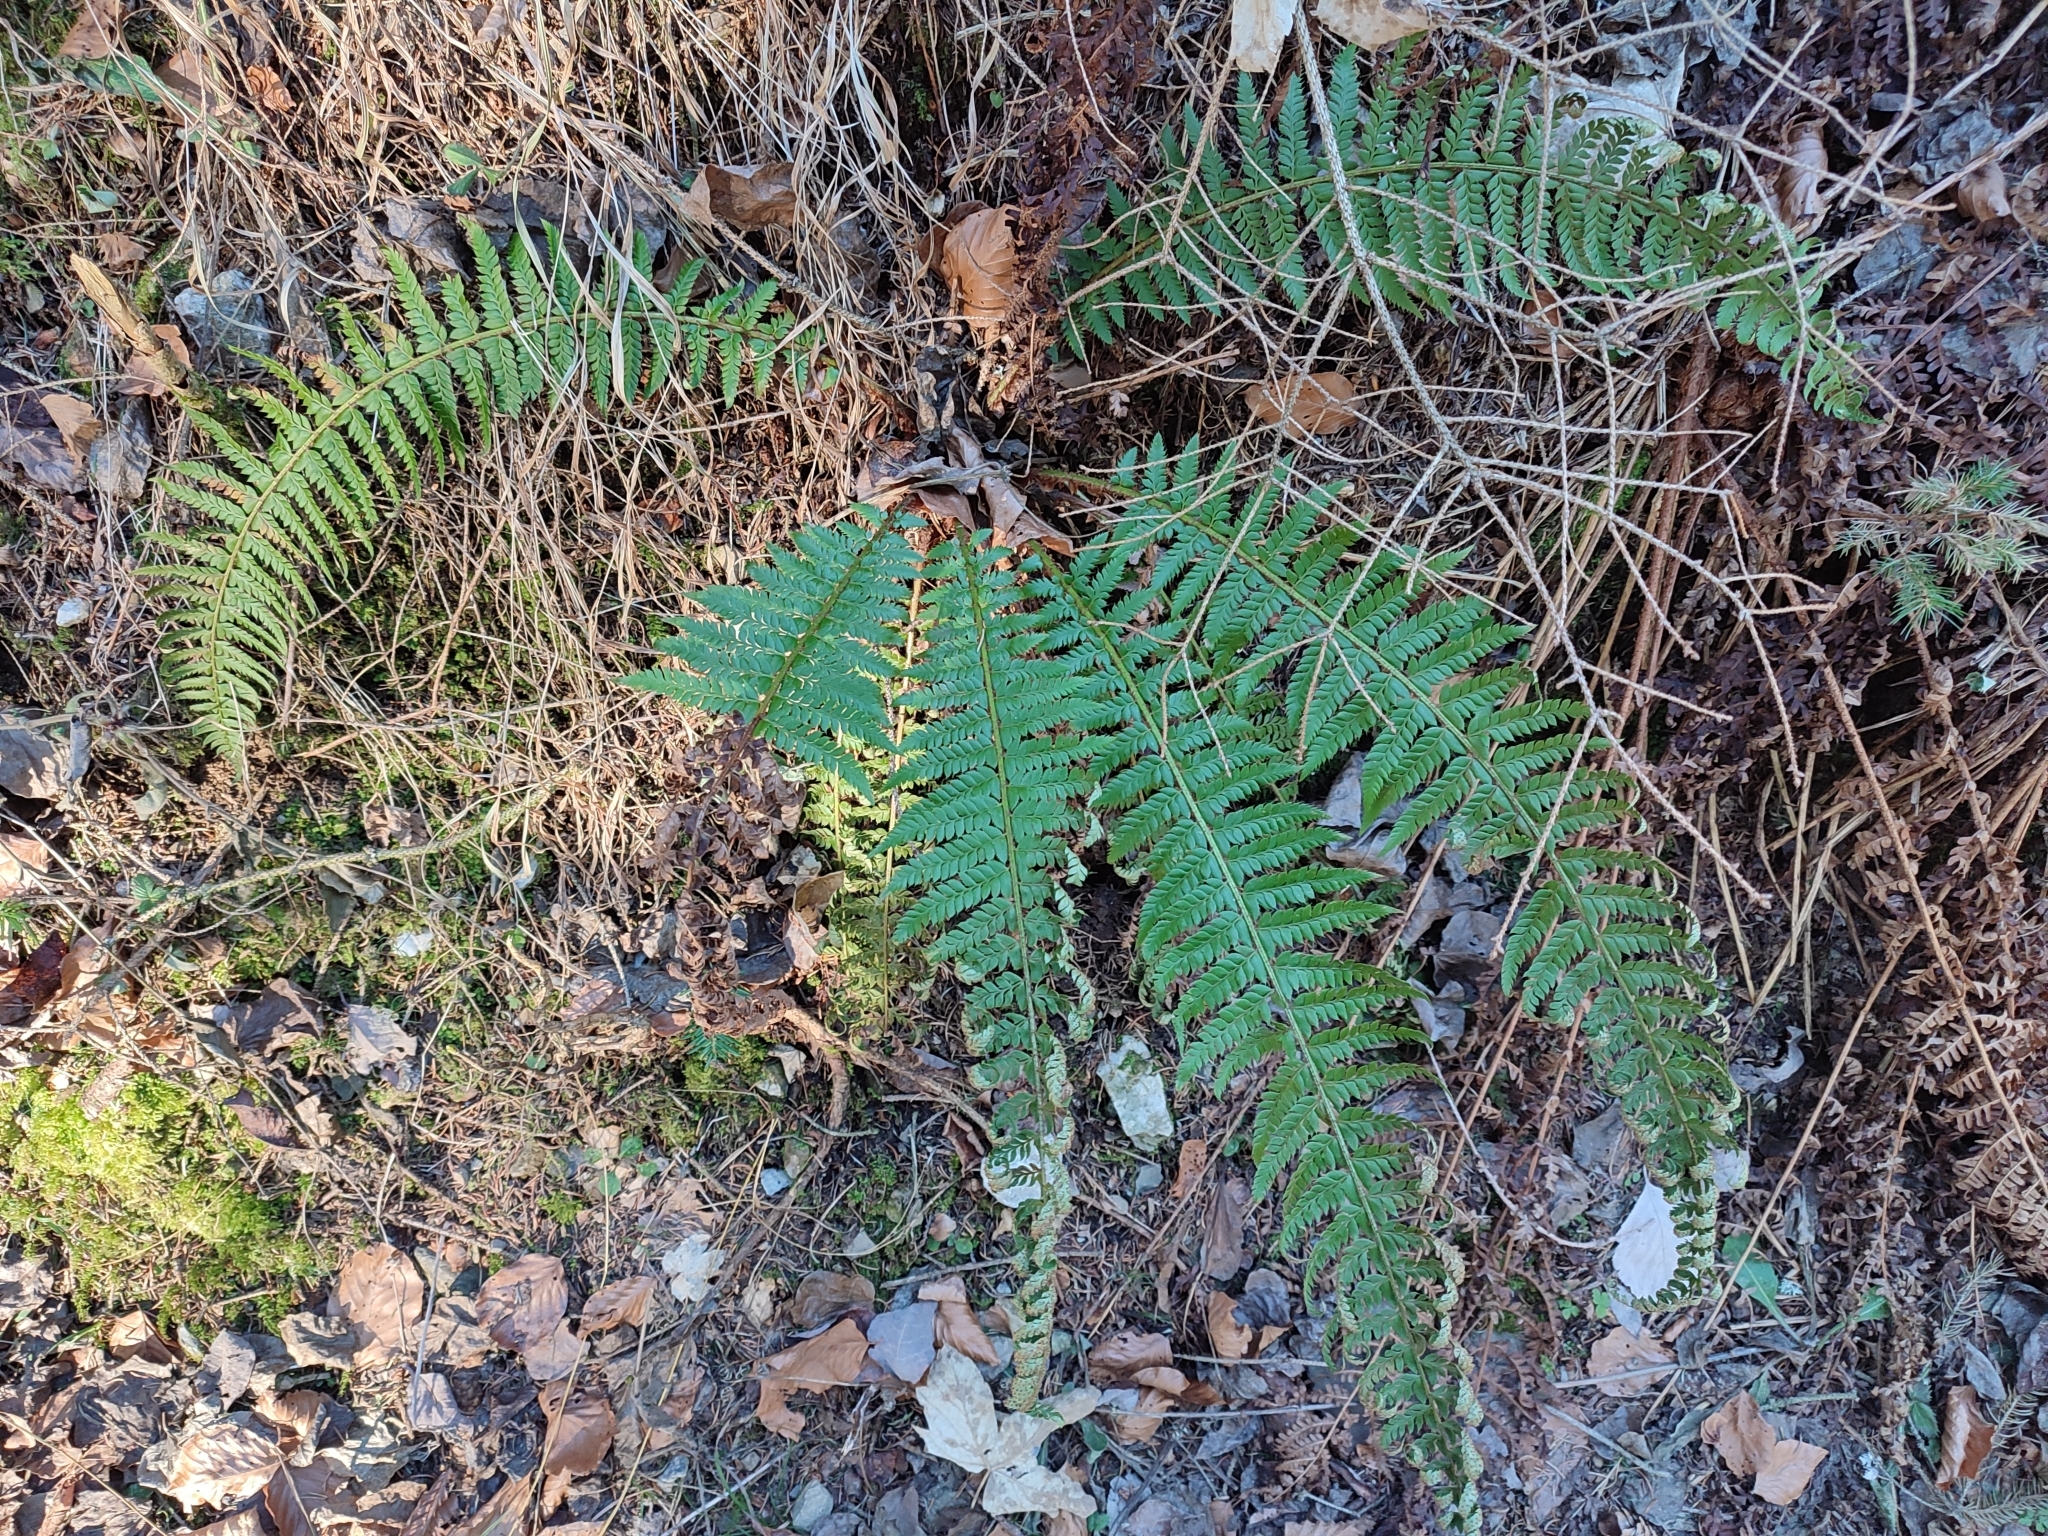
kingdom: Plantae
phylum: Tracheophyta
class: Polypodiopsida
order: Polypodiales
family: Dryopteridaceae
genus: Polystichum
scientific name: Polystichum aculeatum
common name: Hard shield-fern
